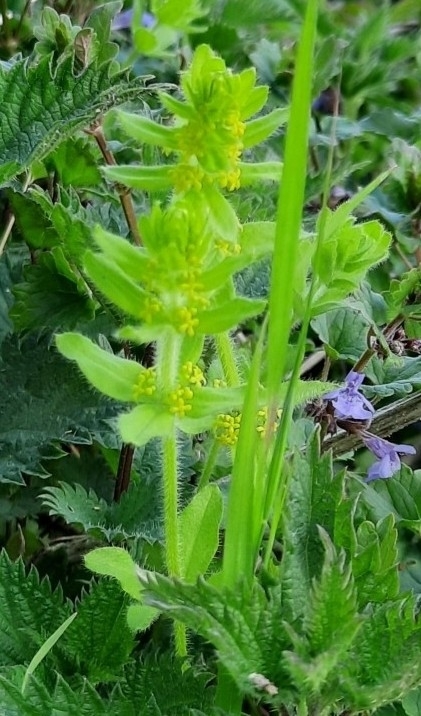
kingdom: Plantae
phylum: Tracheophyta
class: Magnoliopsida
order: Gentianales
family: Rubiaceae
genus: Cruciata
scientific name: Cruciata laevipes
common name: Crosswort
